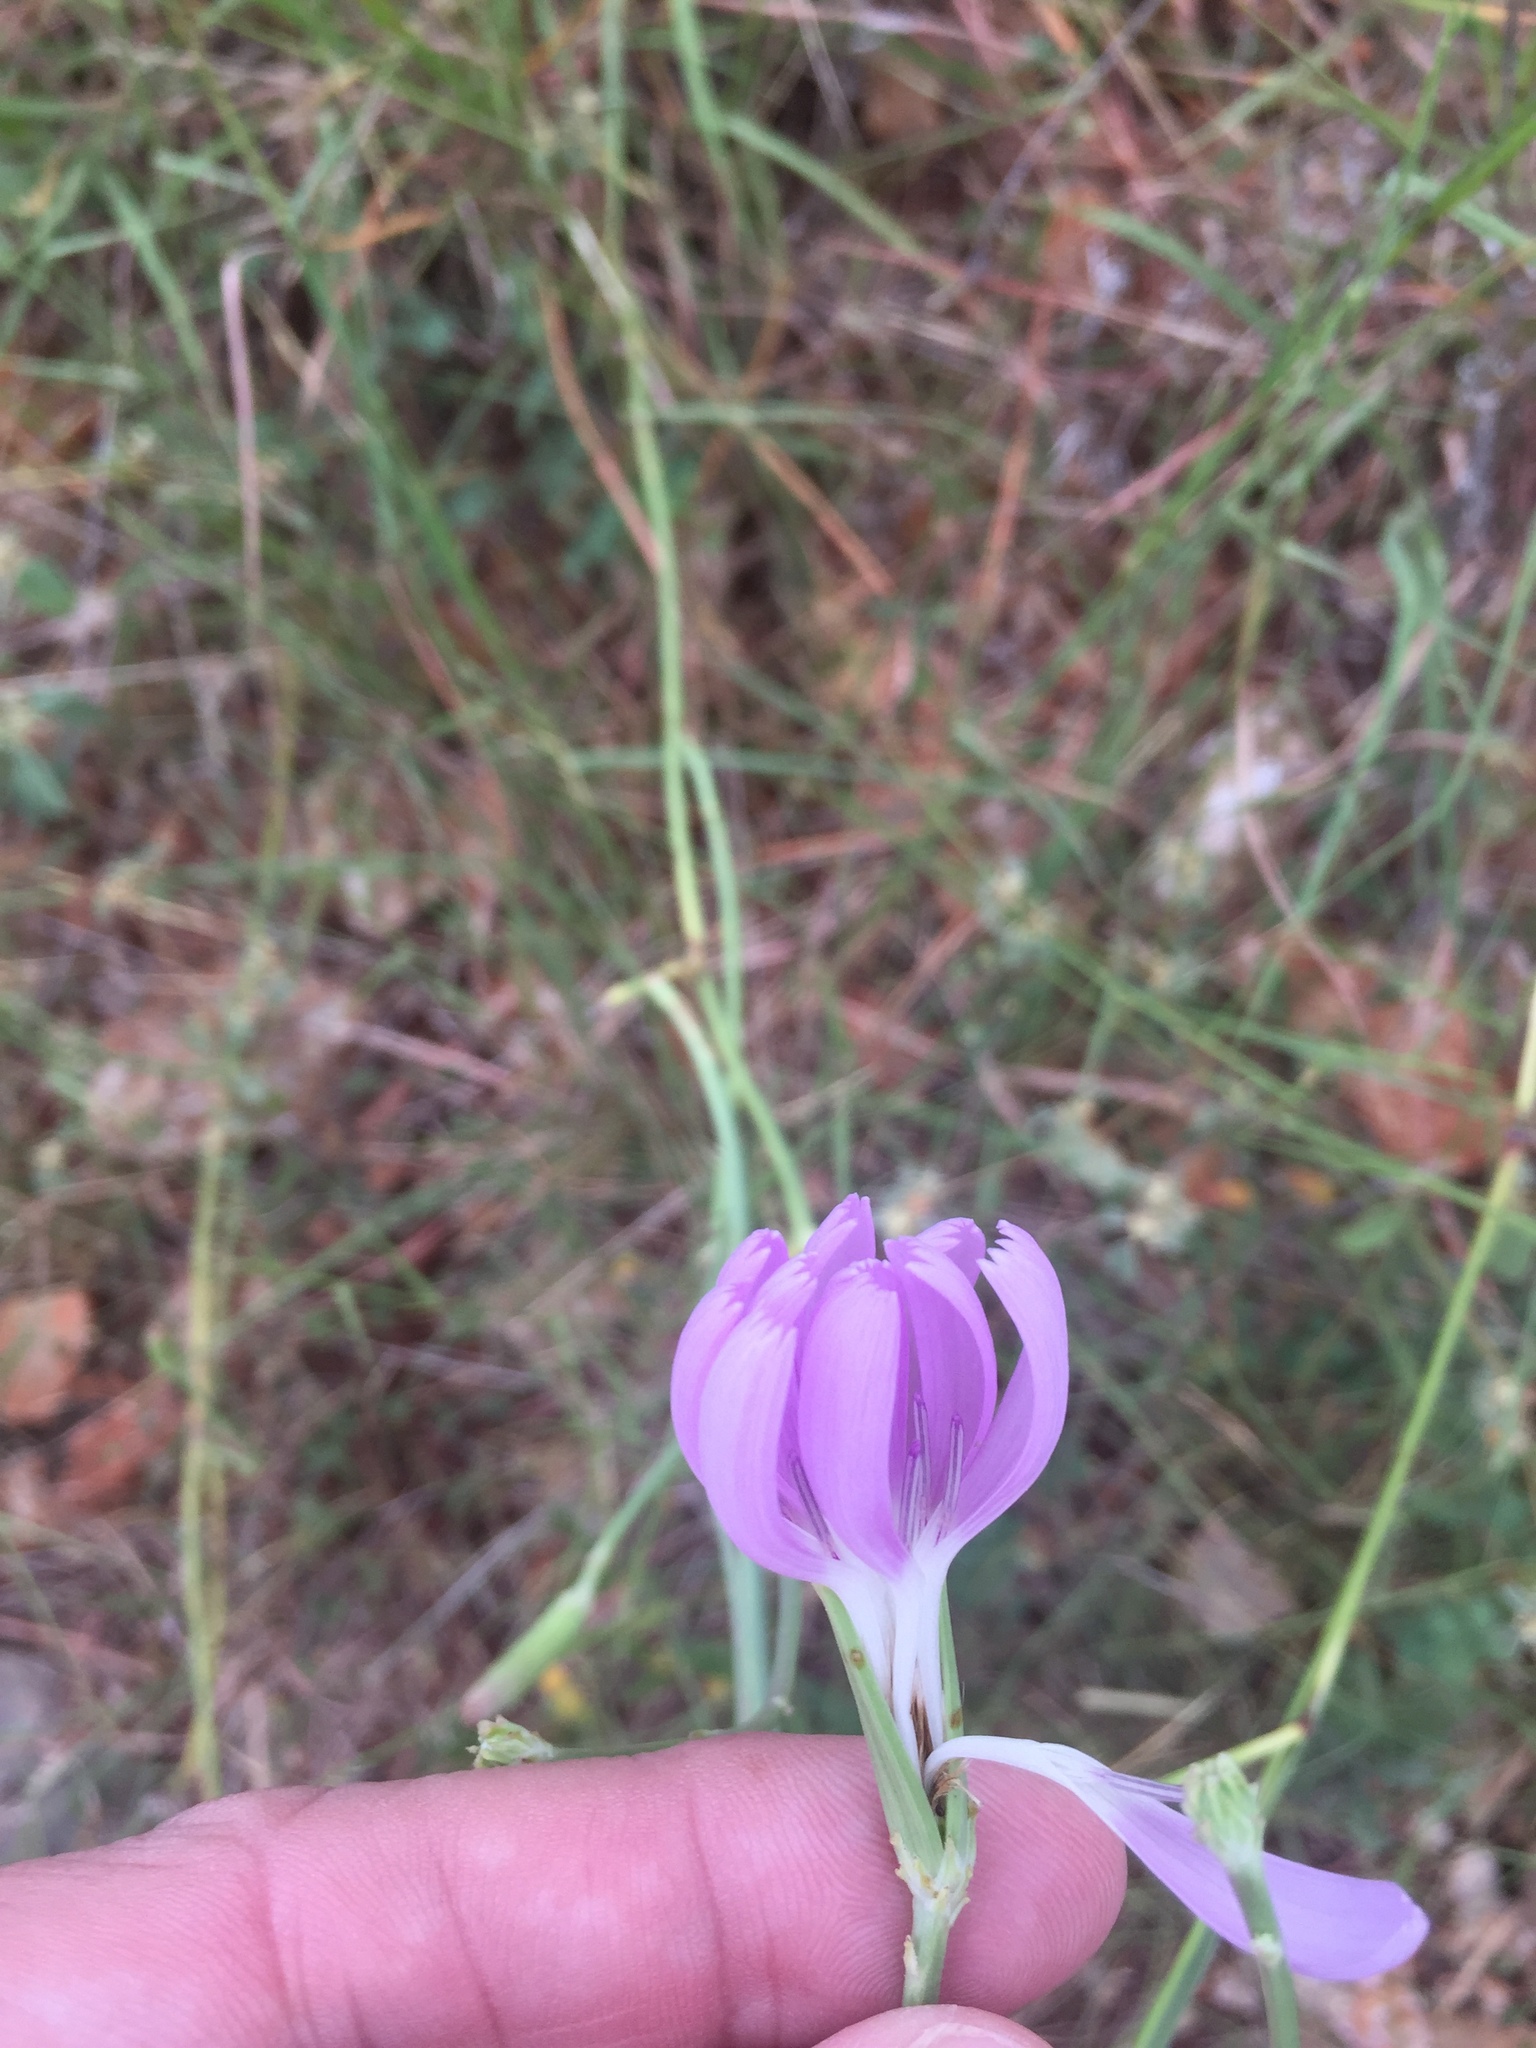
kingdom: Plantae
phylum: Tracheophyta
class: Magnoliopsida
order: Asterales
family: Asteraceae
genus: Lygodesmia
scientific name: Lygodesmia texana
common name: Texas skeleton-plant
